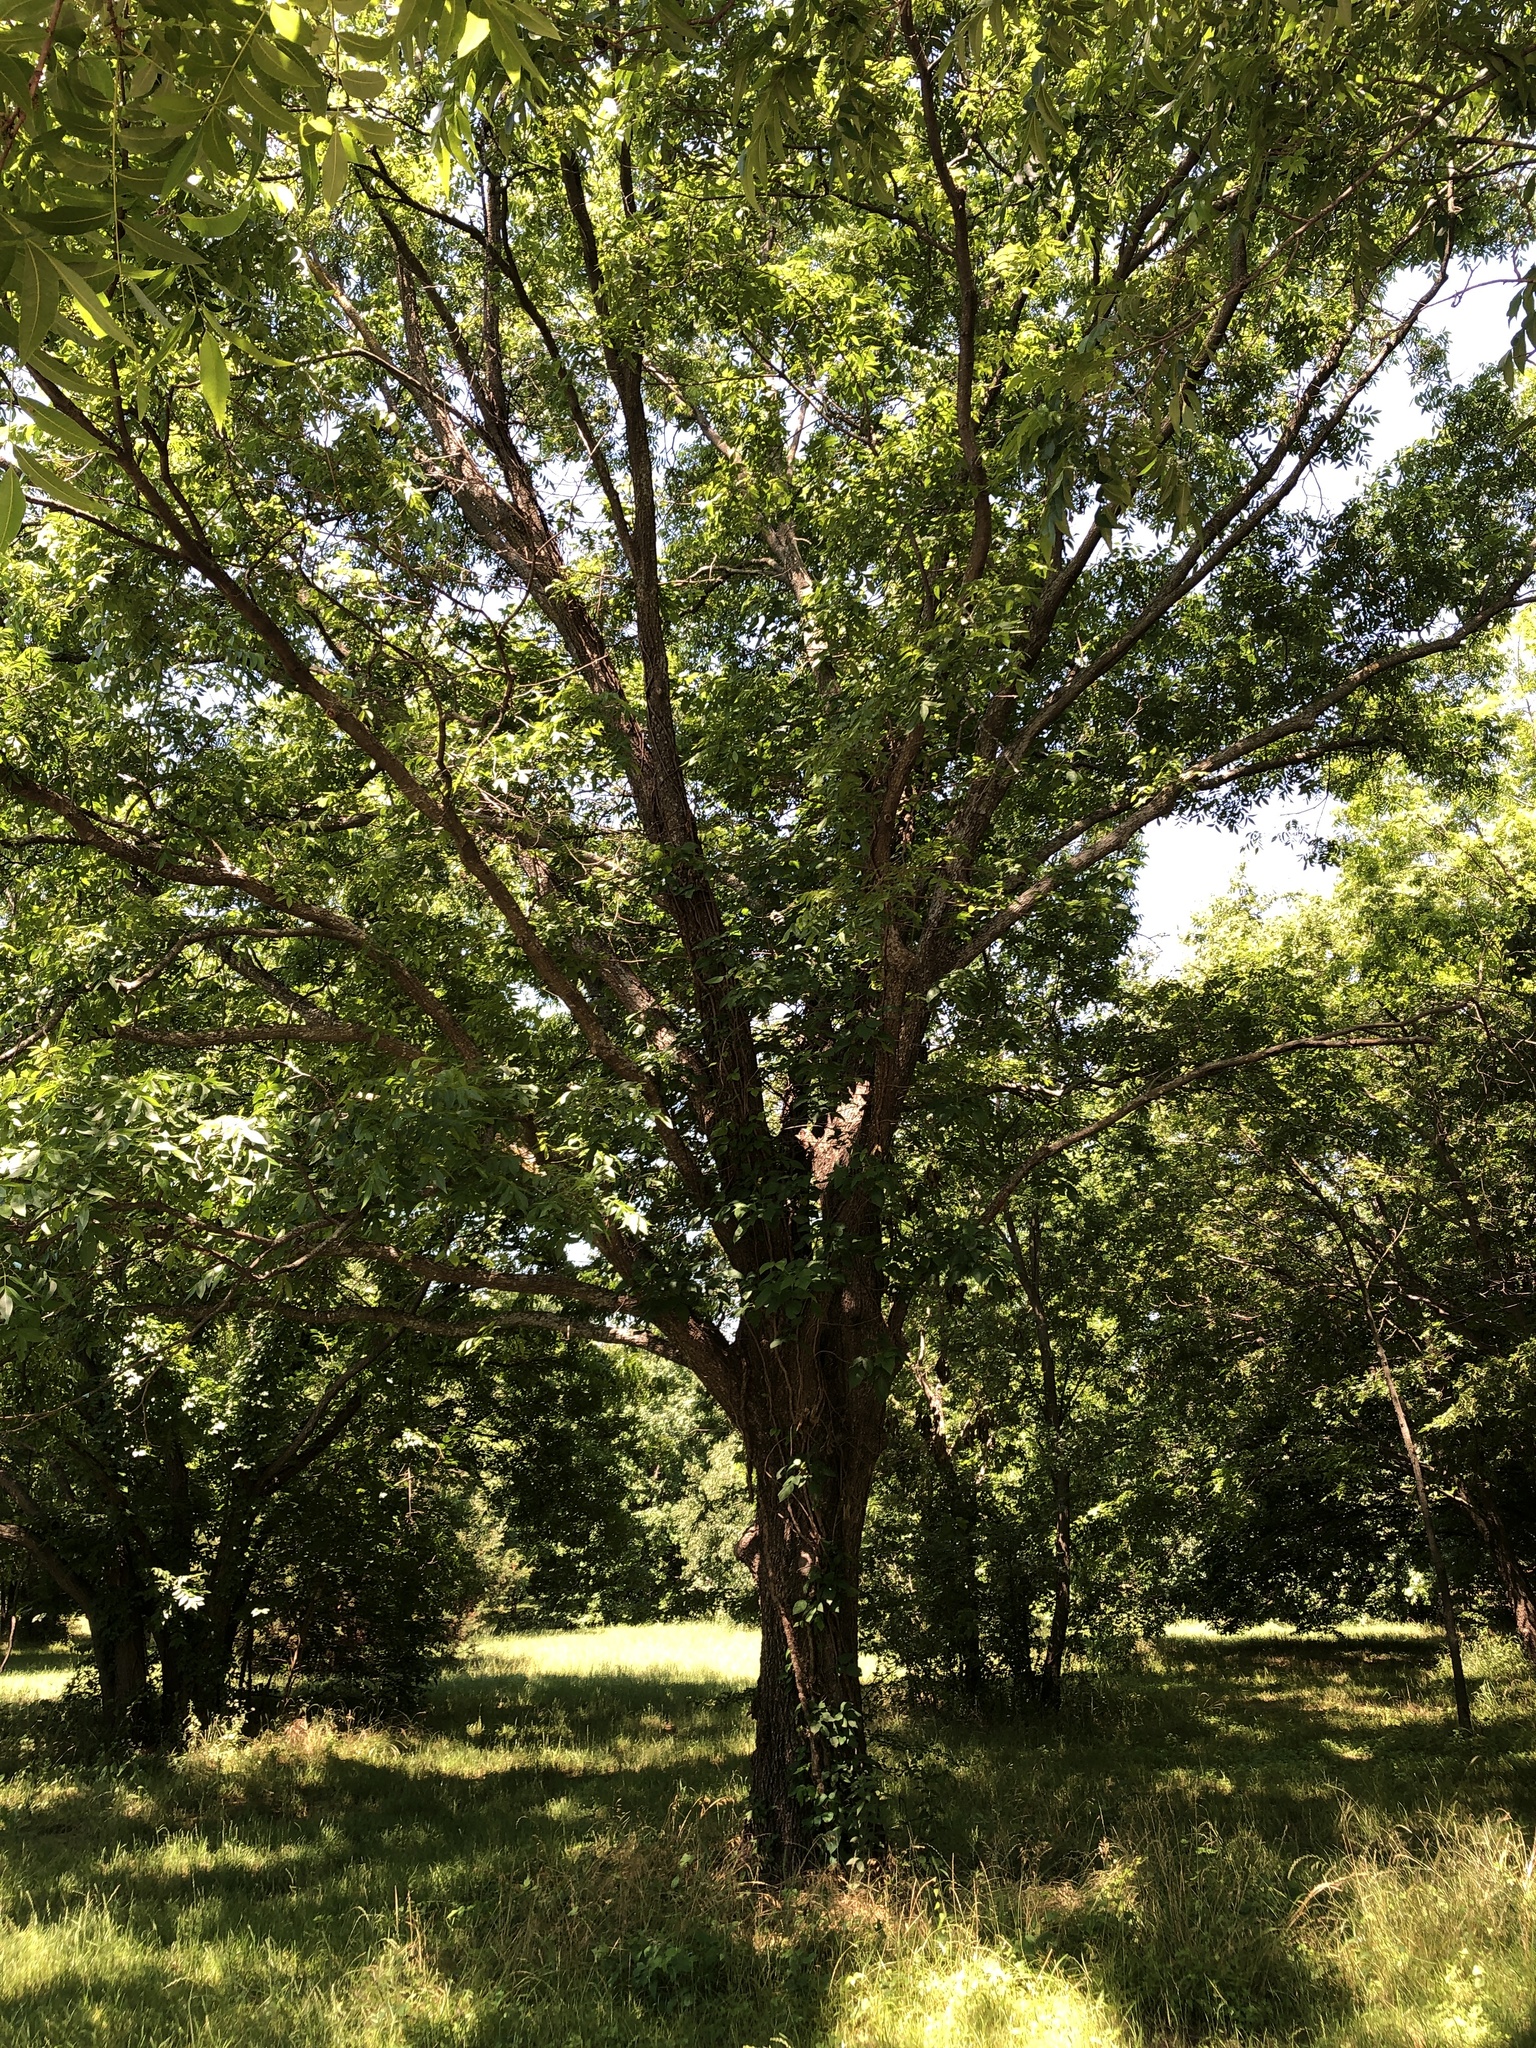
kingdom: Plantae
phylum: Tracheophyta
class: Magnoliopsida
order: Fagales
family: Juglandaceae
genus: Carya
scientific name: Carya illinoinensis
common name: Pecan
